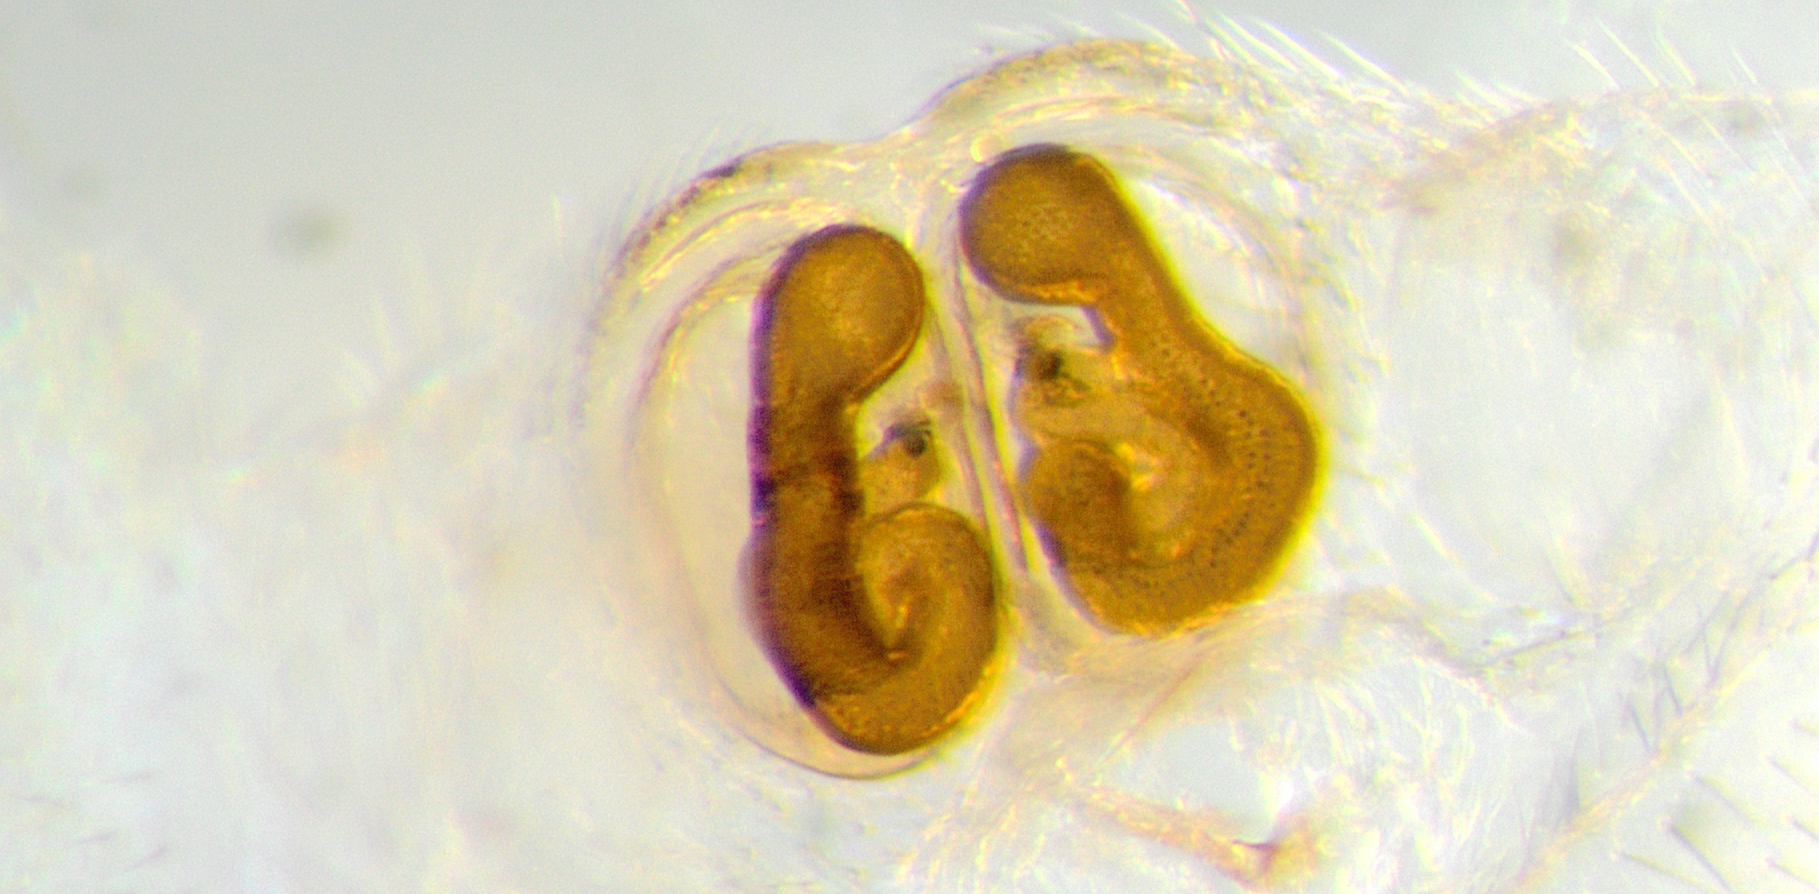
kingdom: Animalia
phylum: Arthropoda
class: Arachnida
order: Araneae
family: Salticidae
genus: Hinewaia
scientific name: Hinewaia embolica
